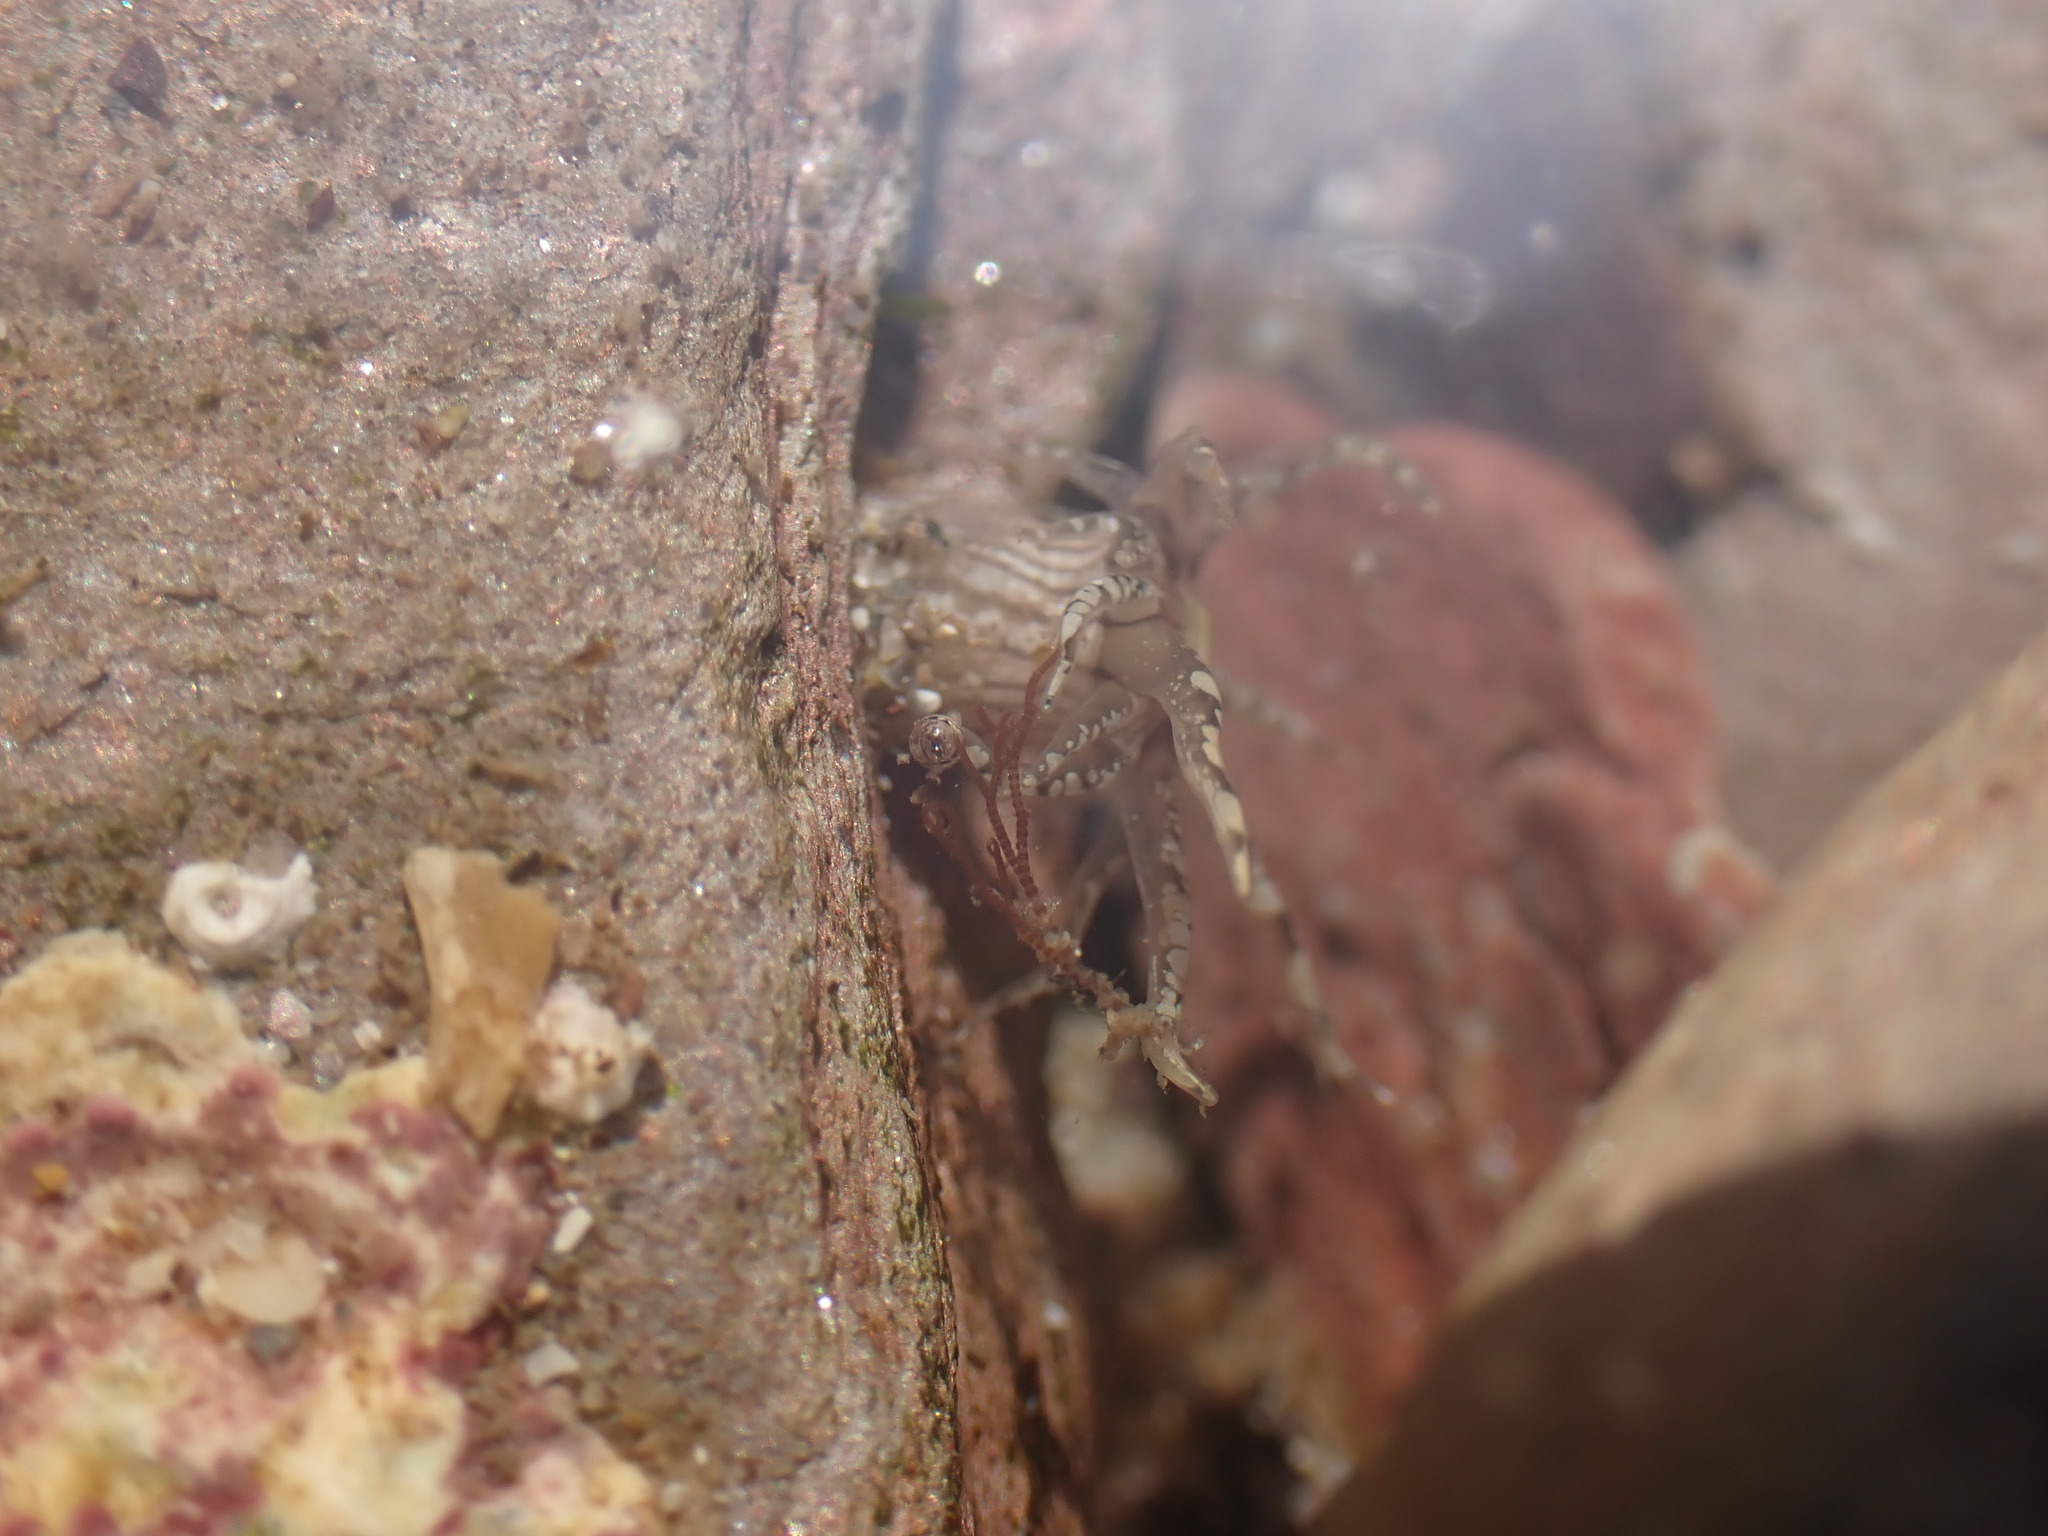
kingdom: Animalia
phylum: Cnidaria
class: Anthozoa
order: Actiniaria
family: Actiniidae
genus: Bunodactis
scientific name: Bunodactis verrucosa
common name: Gem anemone
